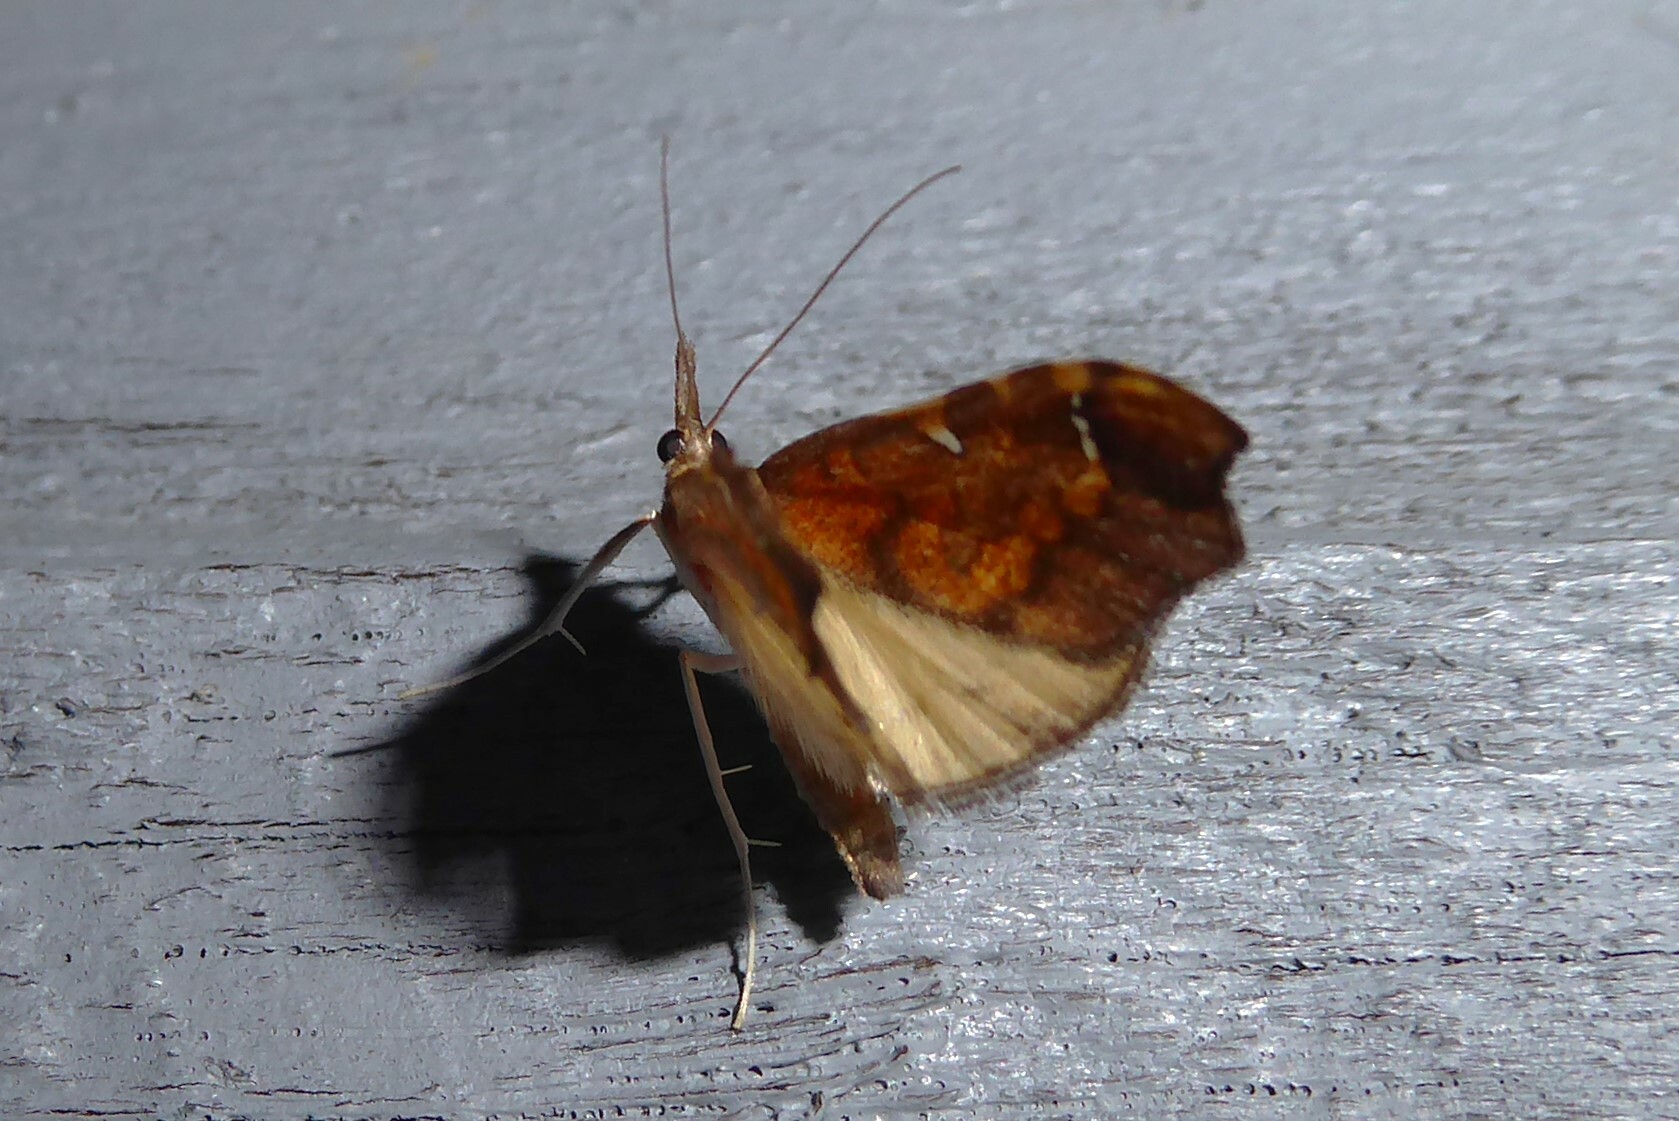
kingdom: Animalia
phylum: Arthropoda
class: Insecta
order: Lepidoptera
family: Crambidae
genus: Deana
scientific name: Deana hybreasalis
